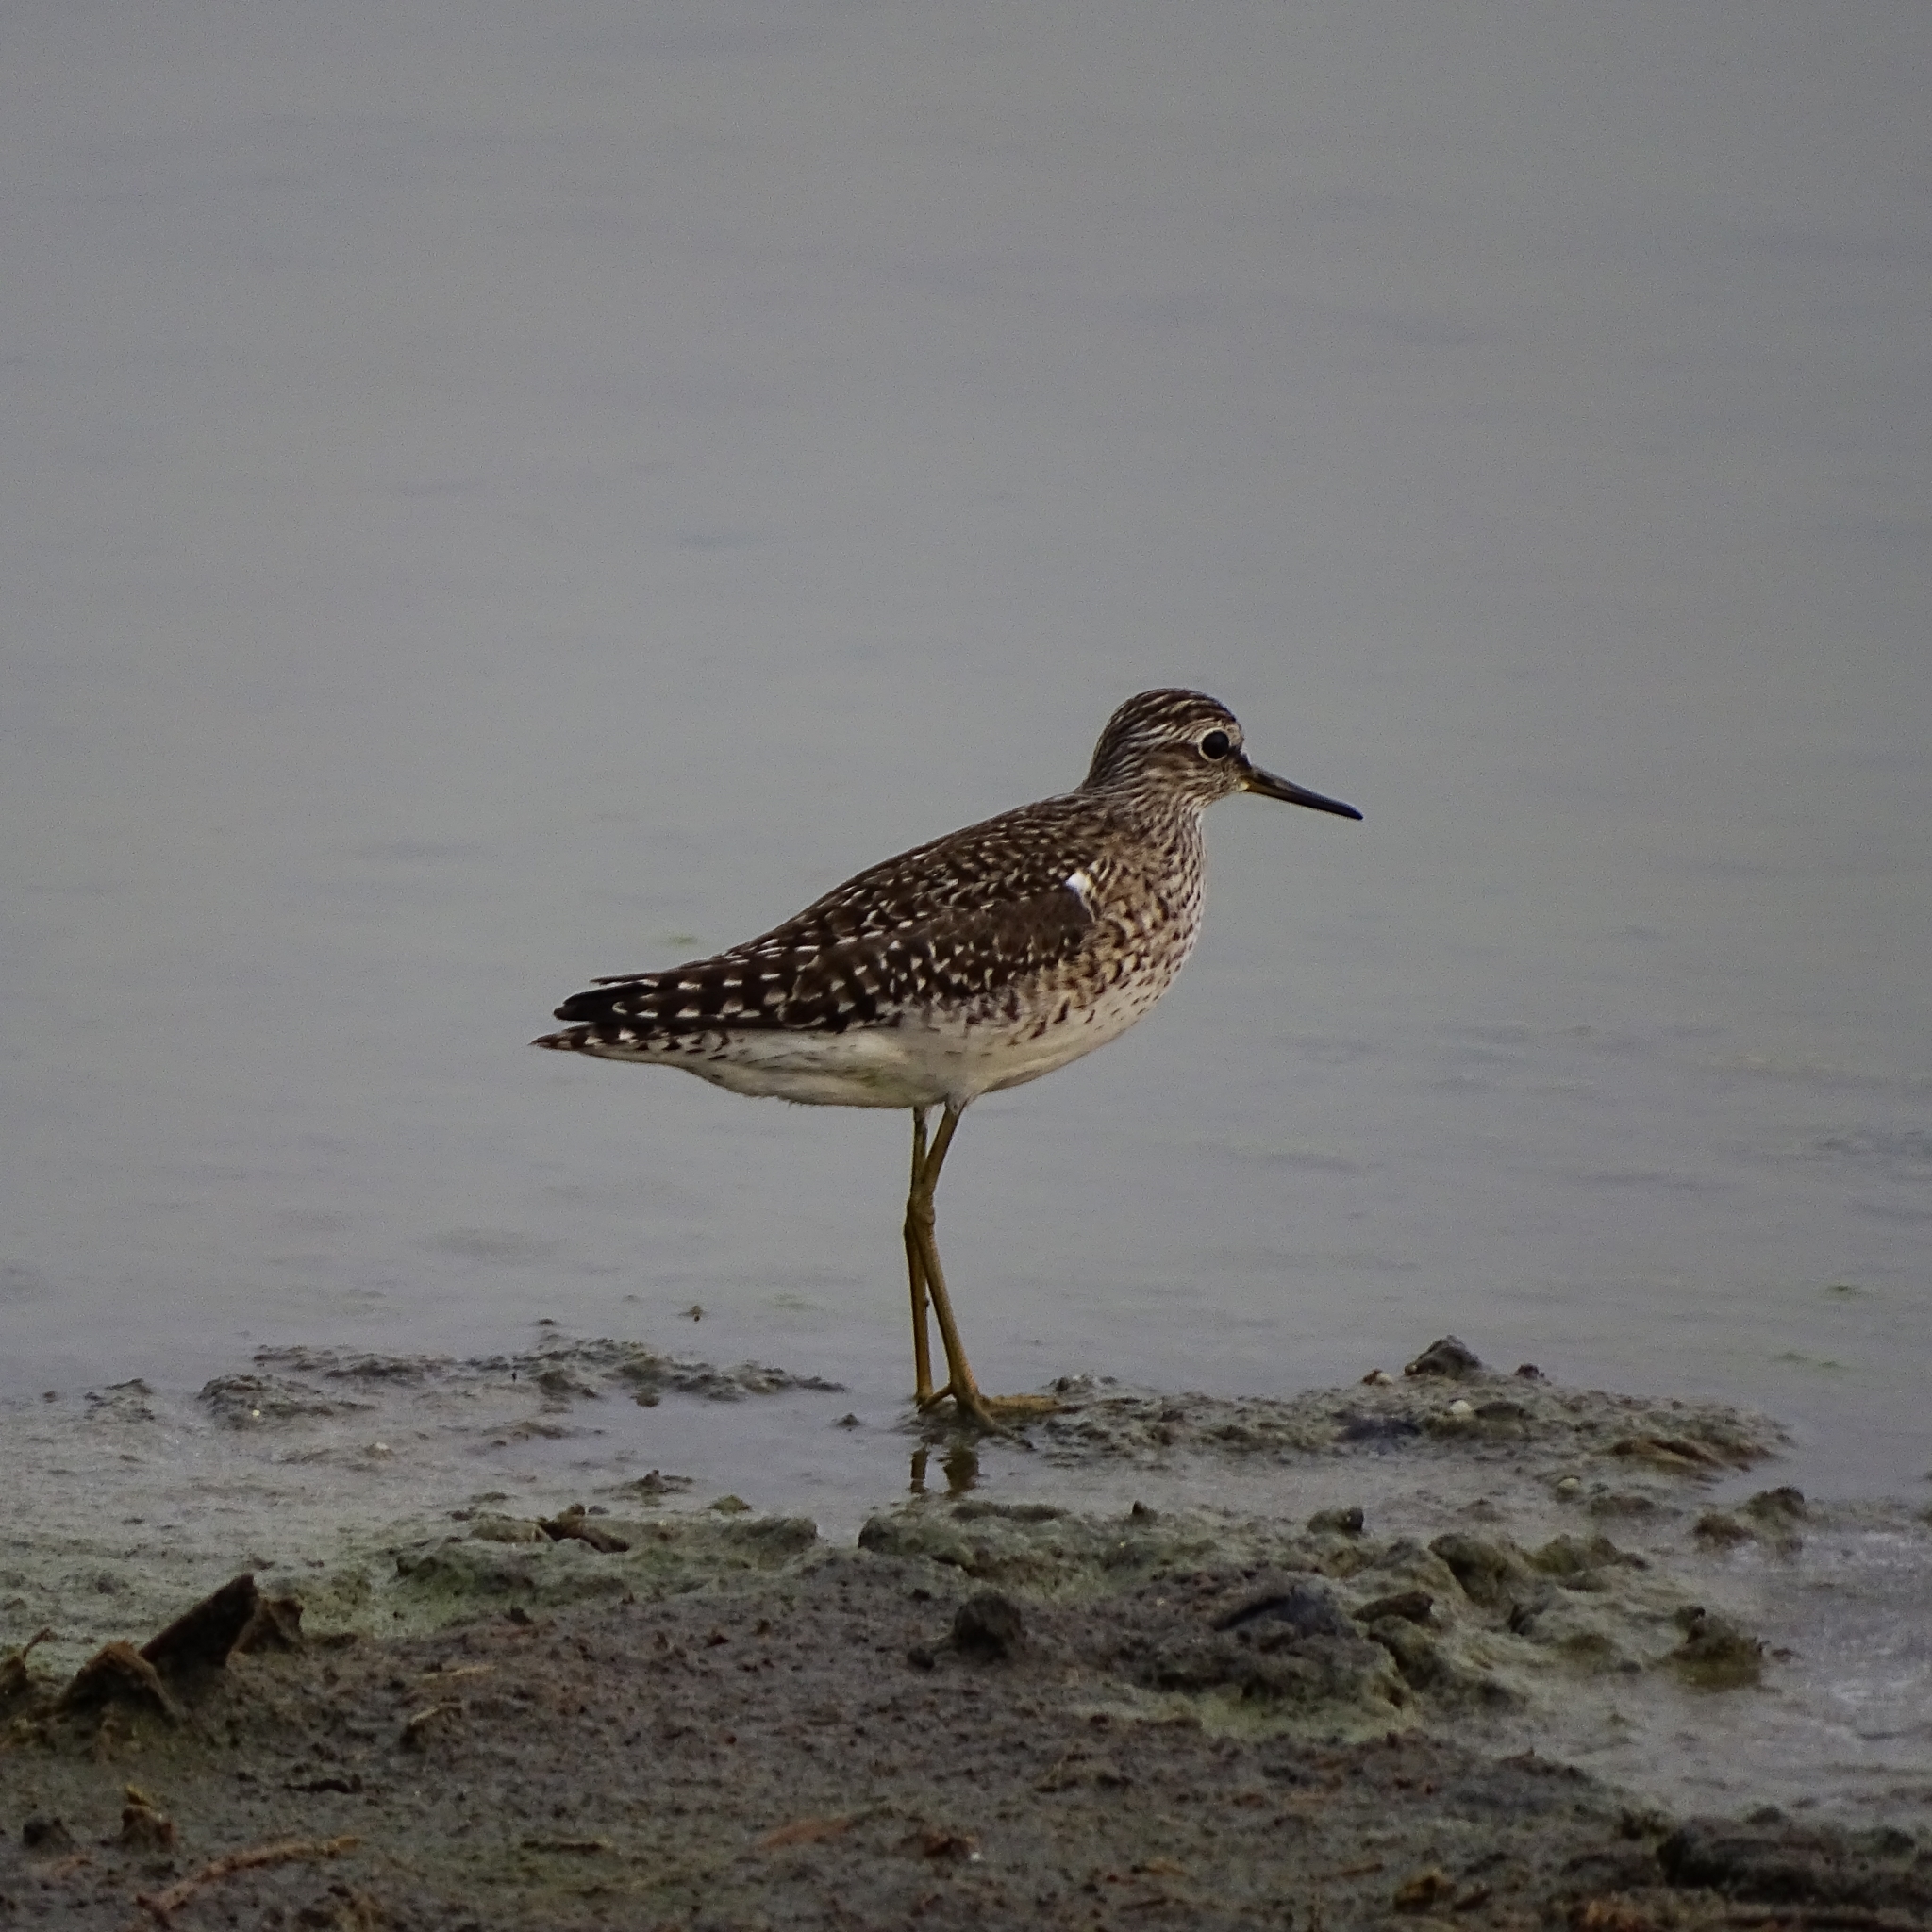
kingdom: Animalia
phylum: Chordata
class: Aves
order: Charadriiformes
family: Scolopacidae
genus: Tringa
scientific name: Tringa glareola
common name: Wood sandpiper
